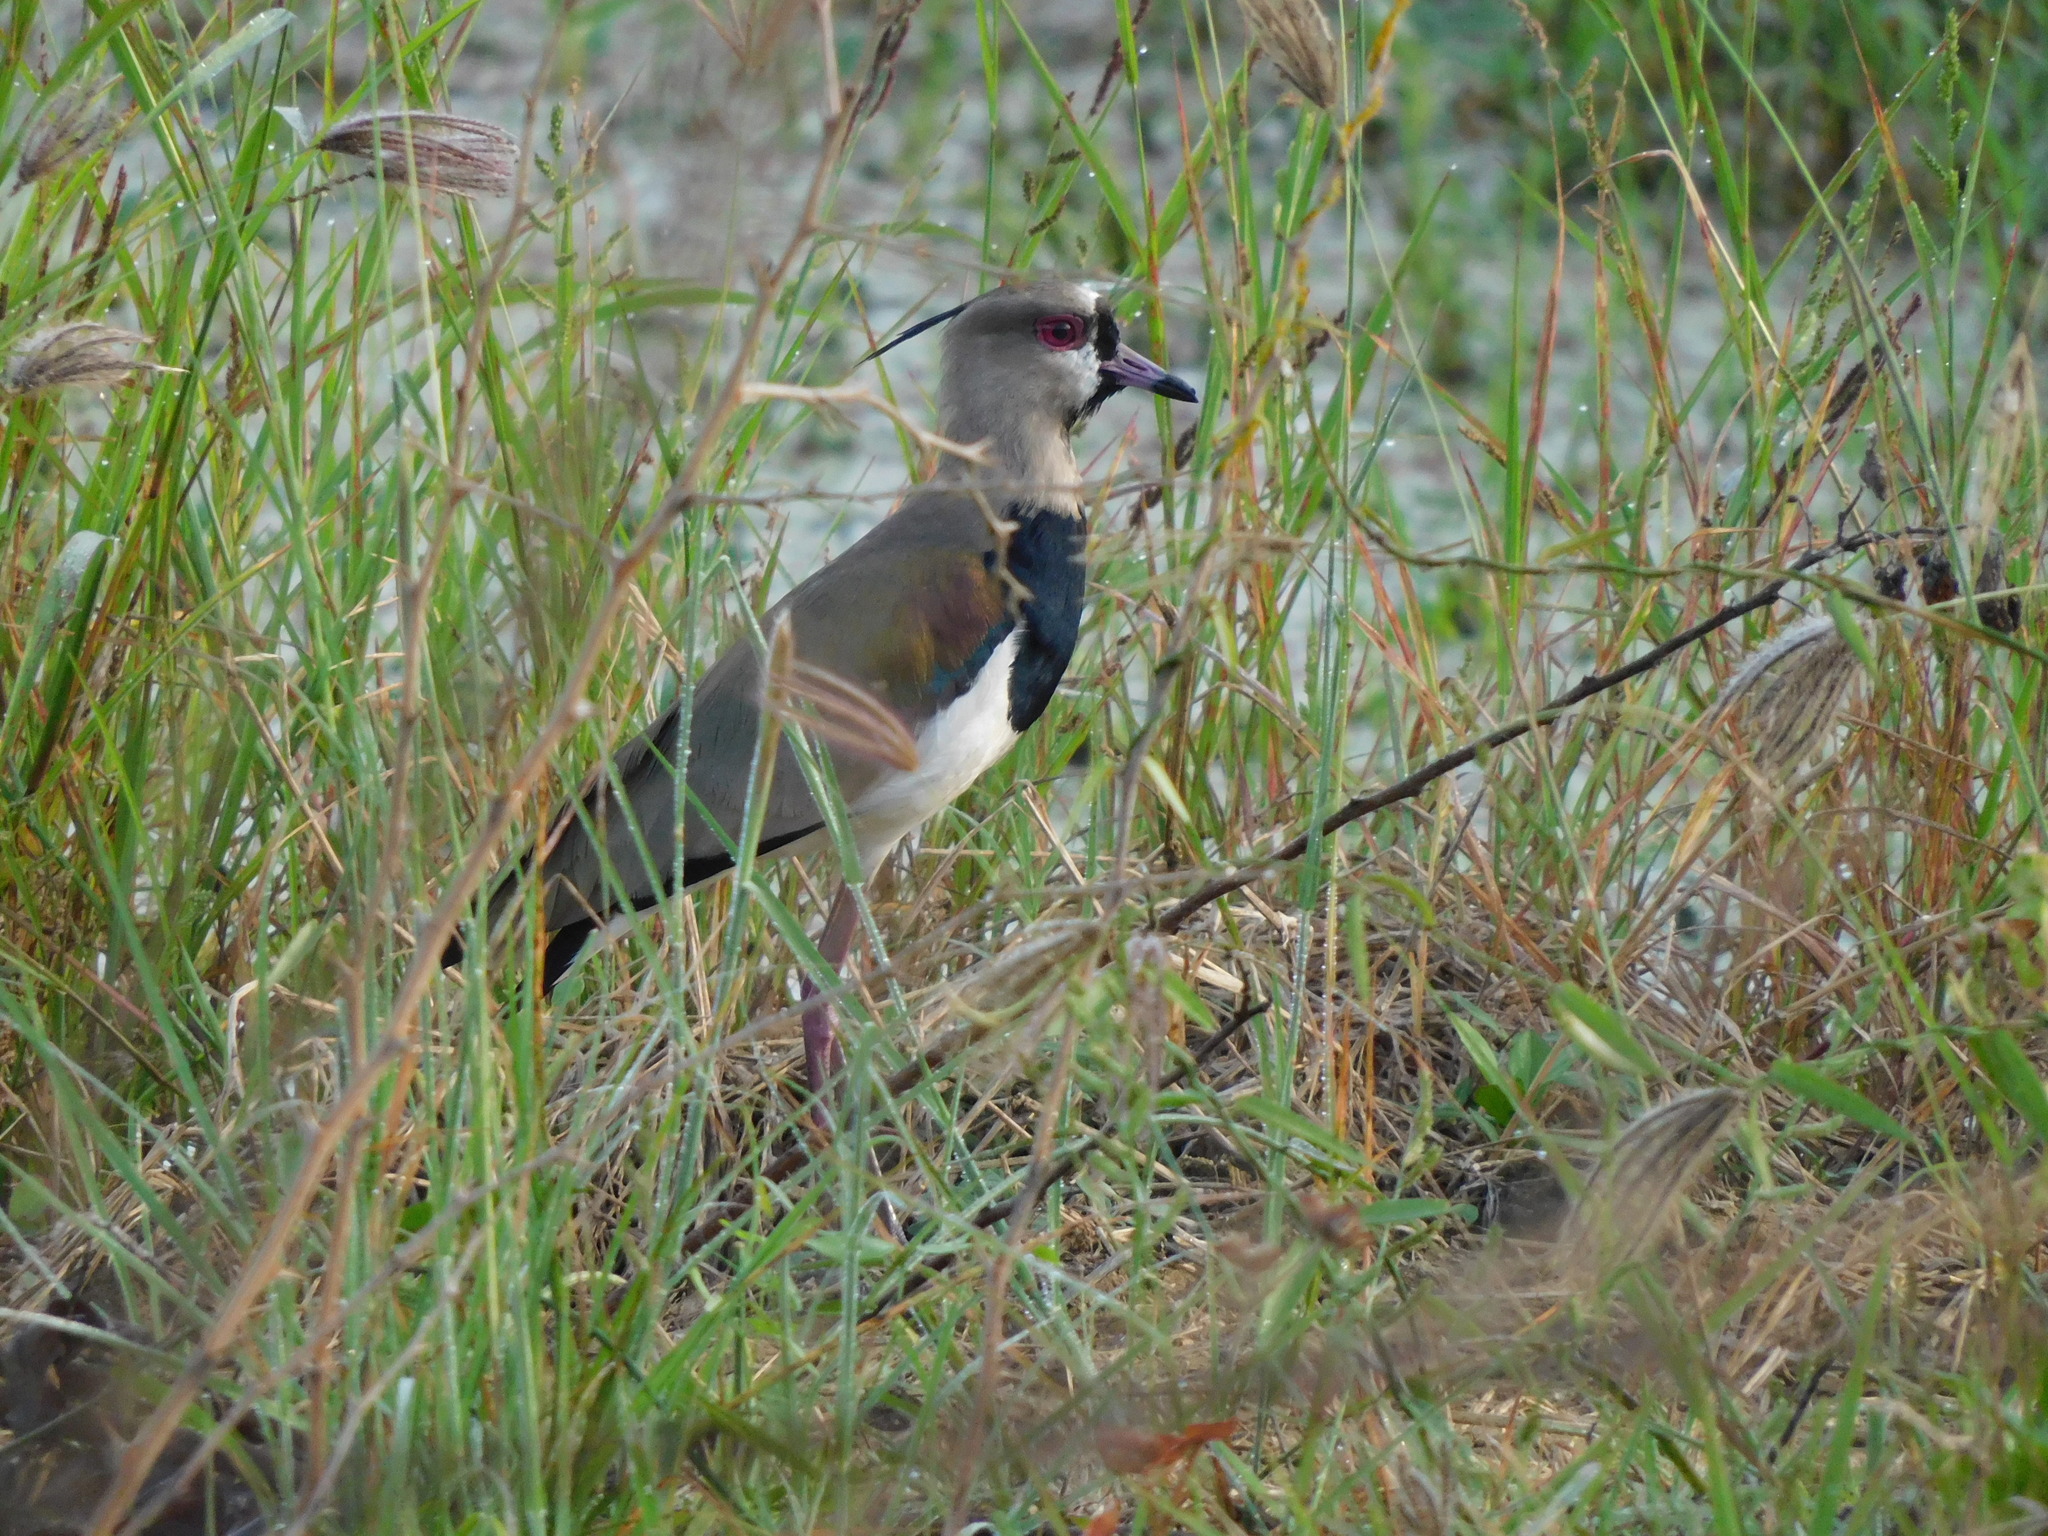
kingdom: Animalia
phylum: Chordata
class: Aves
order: Charadriiformes
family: Charadriidae
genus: Vanellus
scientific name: Vanellus chilensis
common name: Southern lapwing
